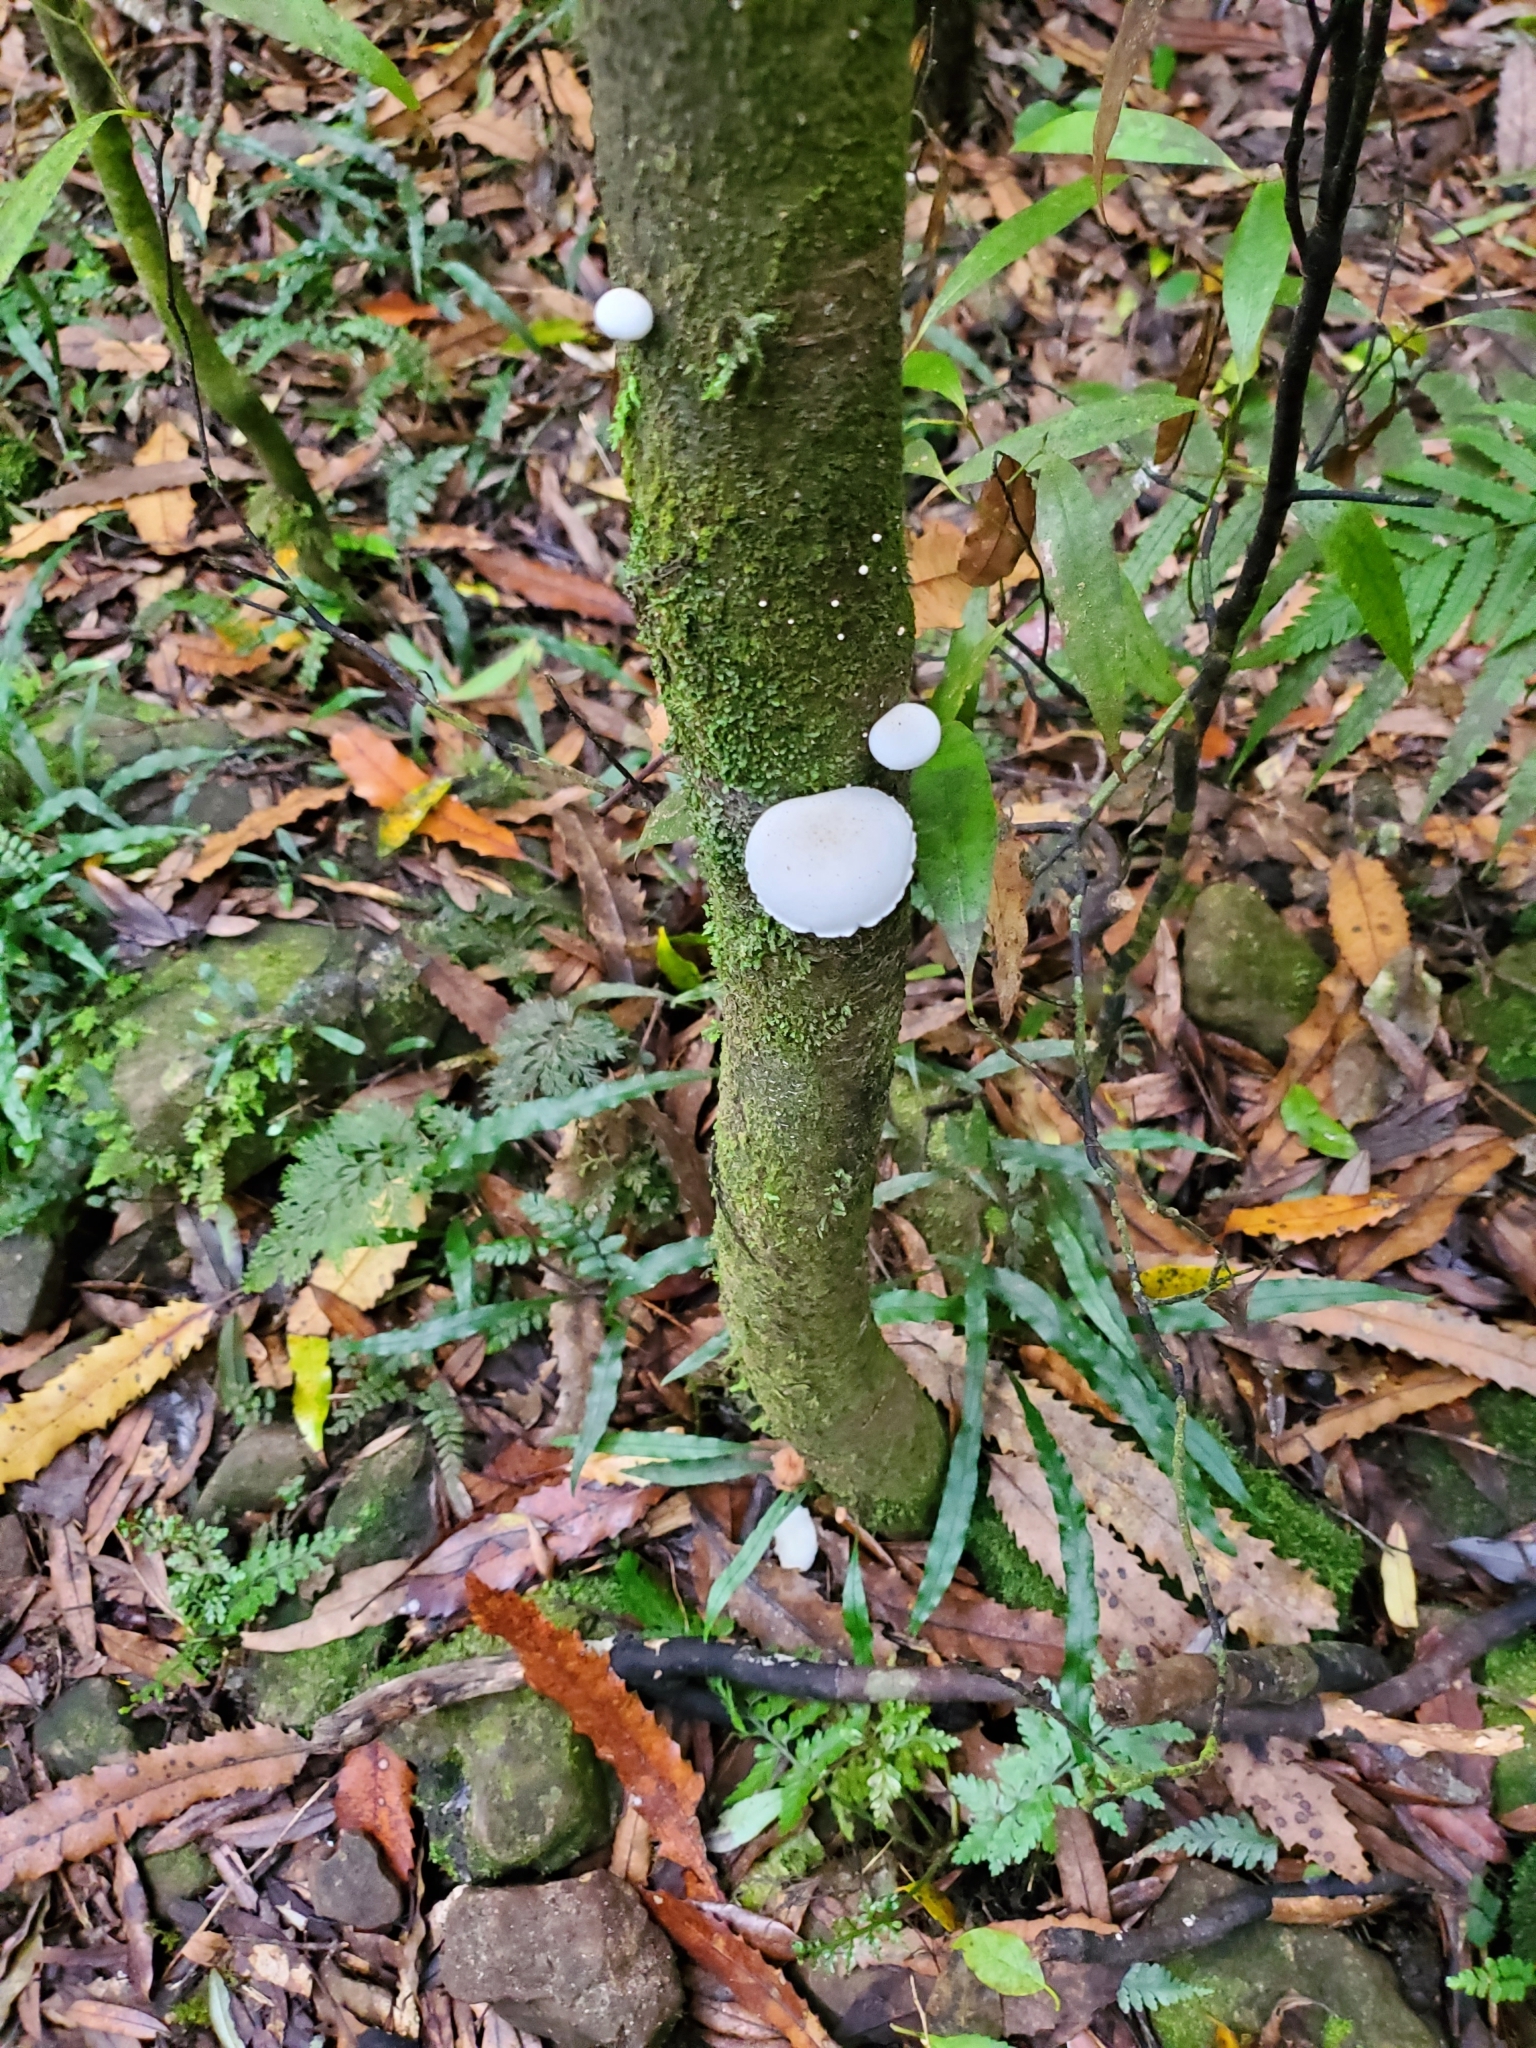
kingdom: Fungi
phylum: Basidiomycota
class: Agaricomycetes
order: Agaricales
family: Physalacriaceae
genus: Oudemansiella
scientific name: Oudemansiella australis
